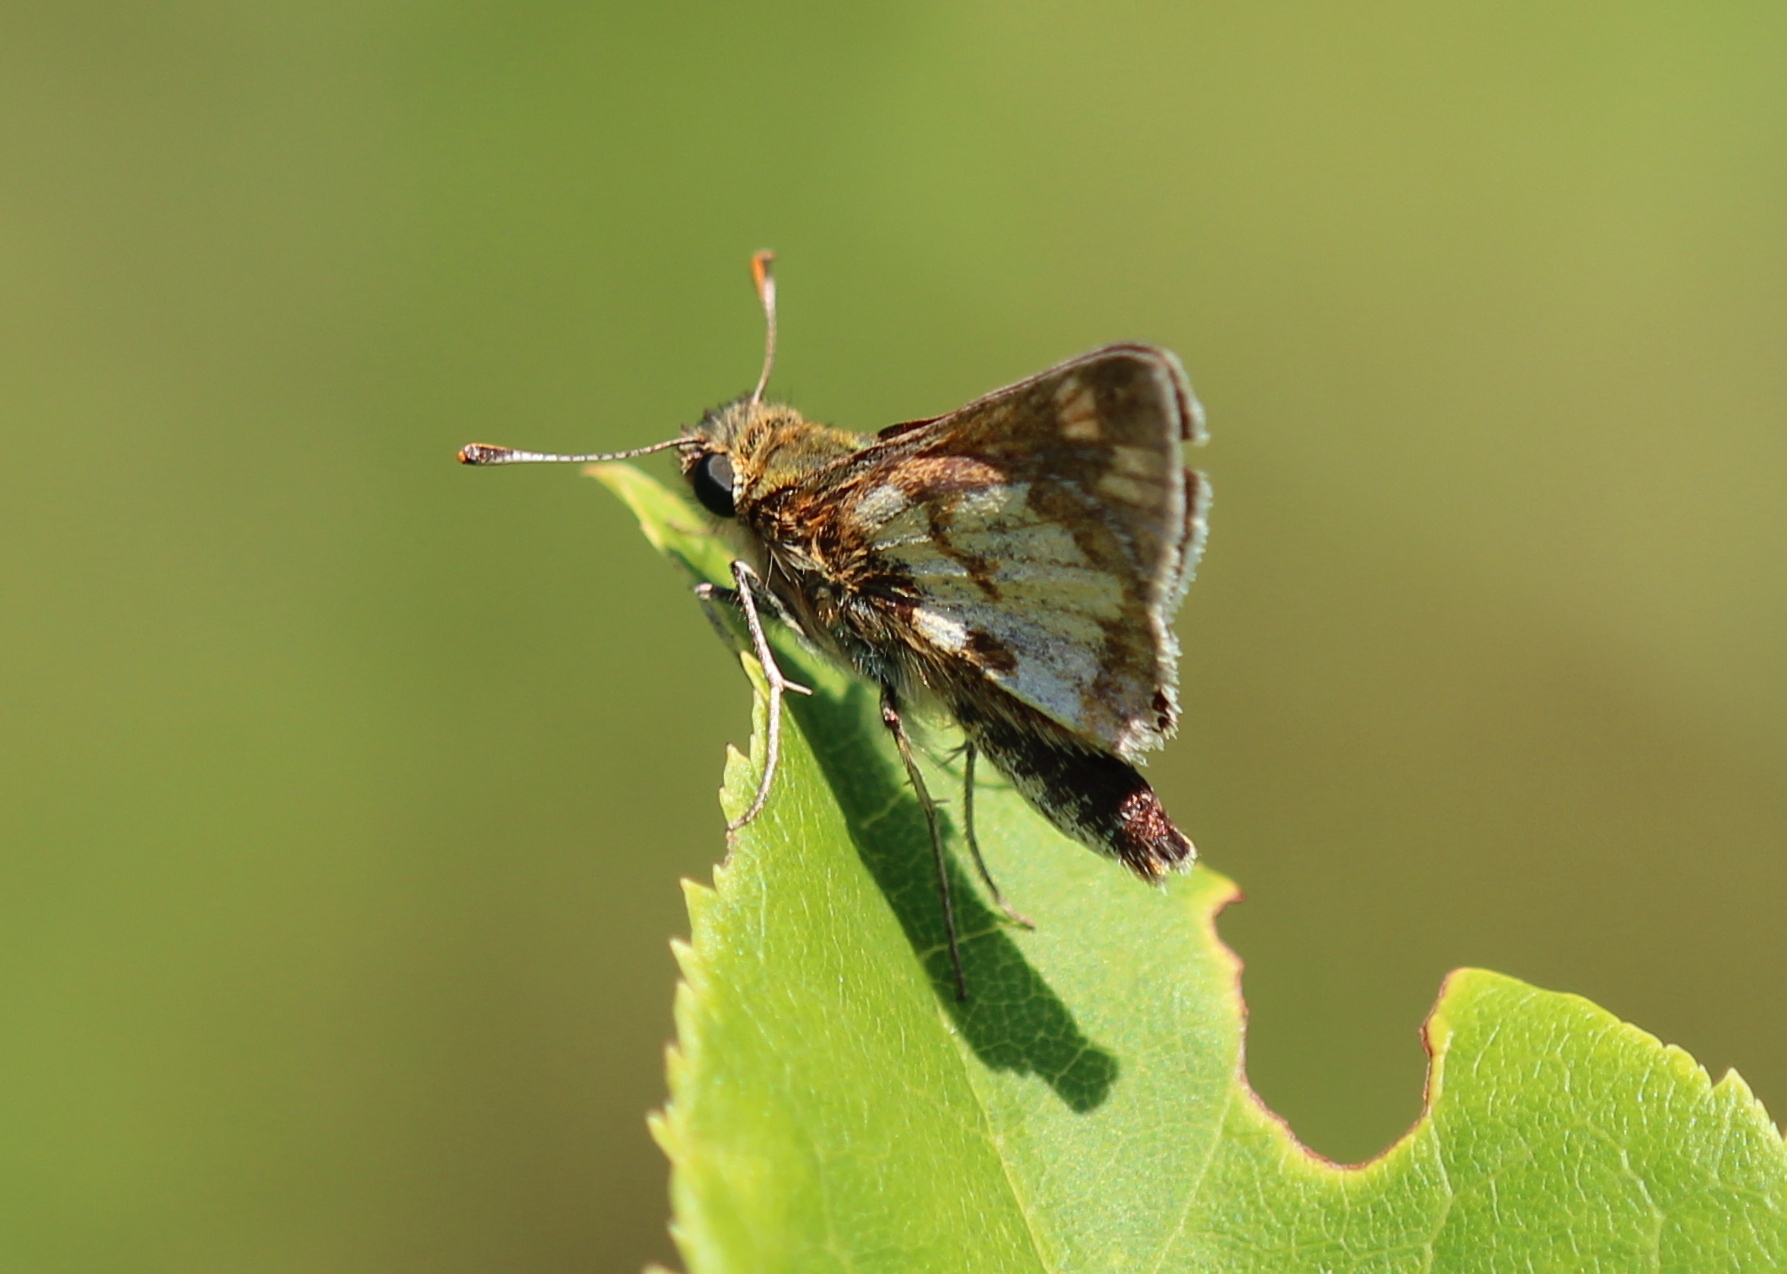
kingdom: Animalia
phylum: Arthropoda
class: Insecta
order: Lepidoptera
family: Hesperiidae
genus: Polites
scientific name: Polites coras
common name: Peck's skipper
